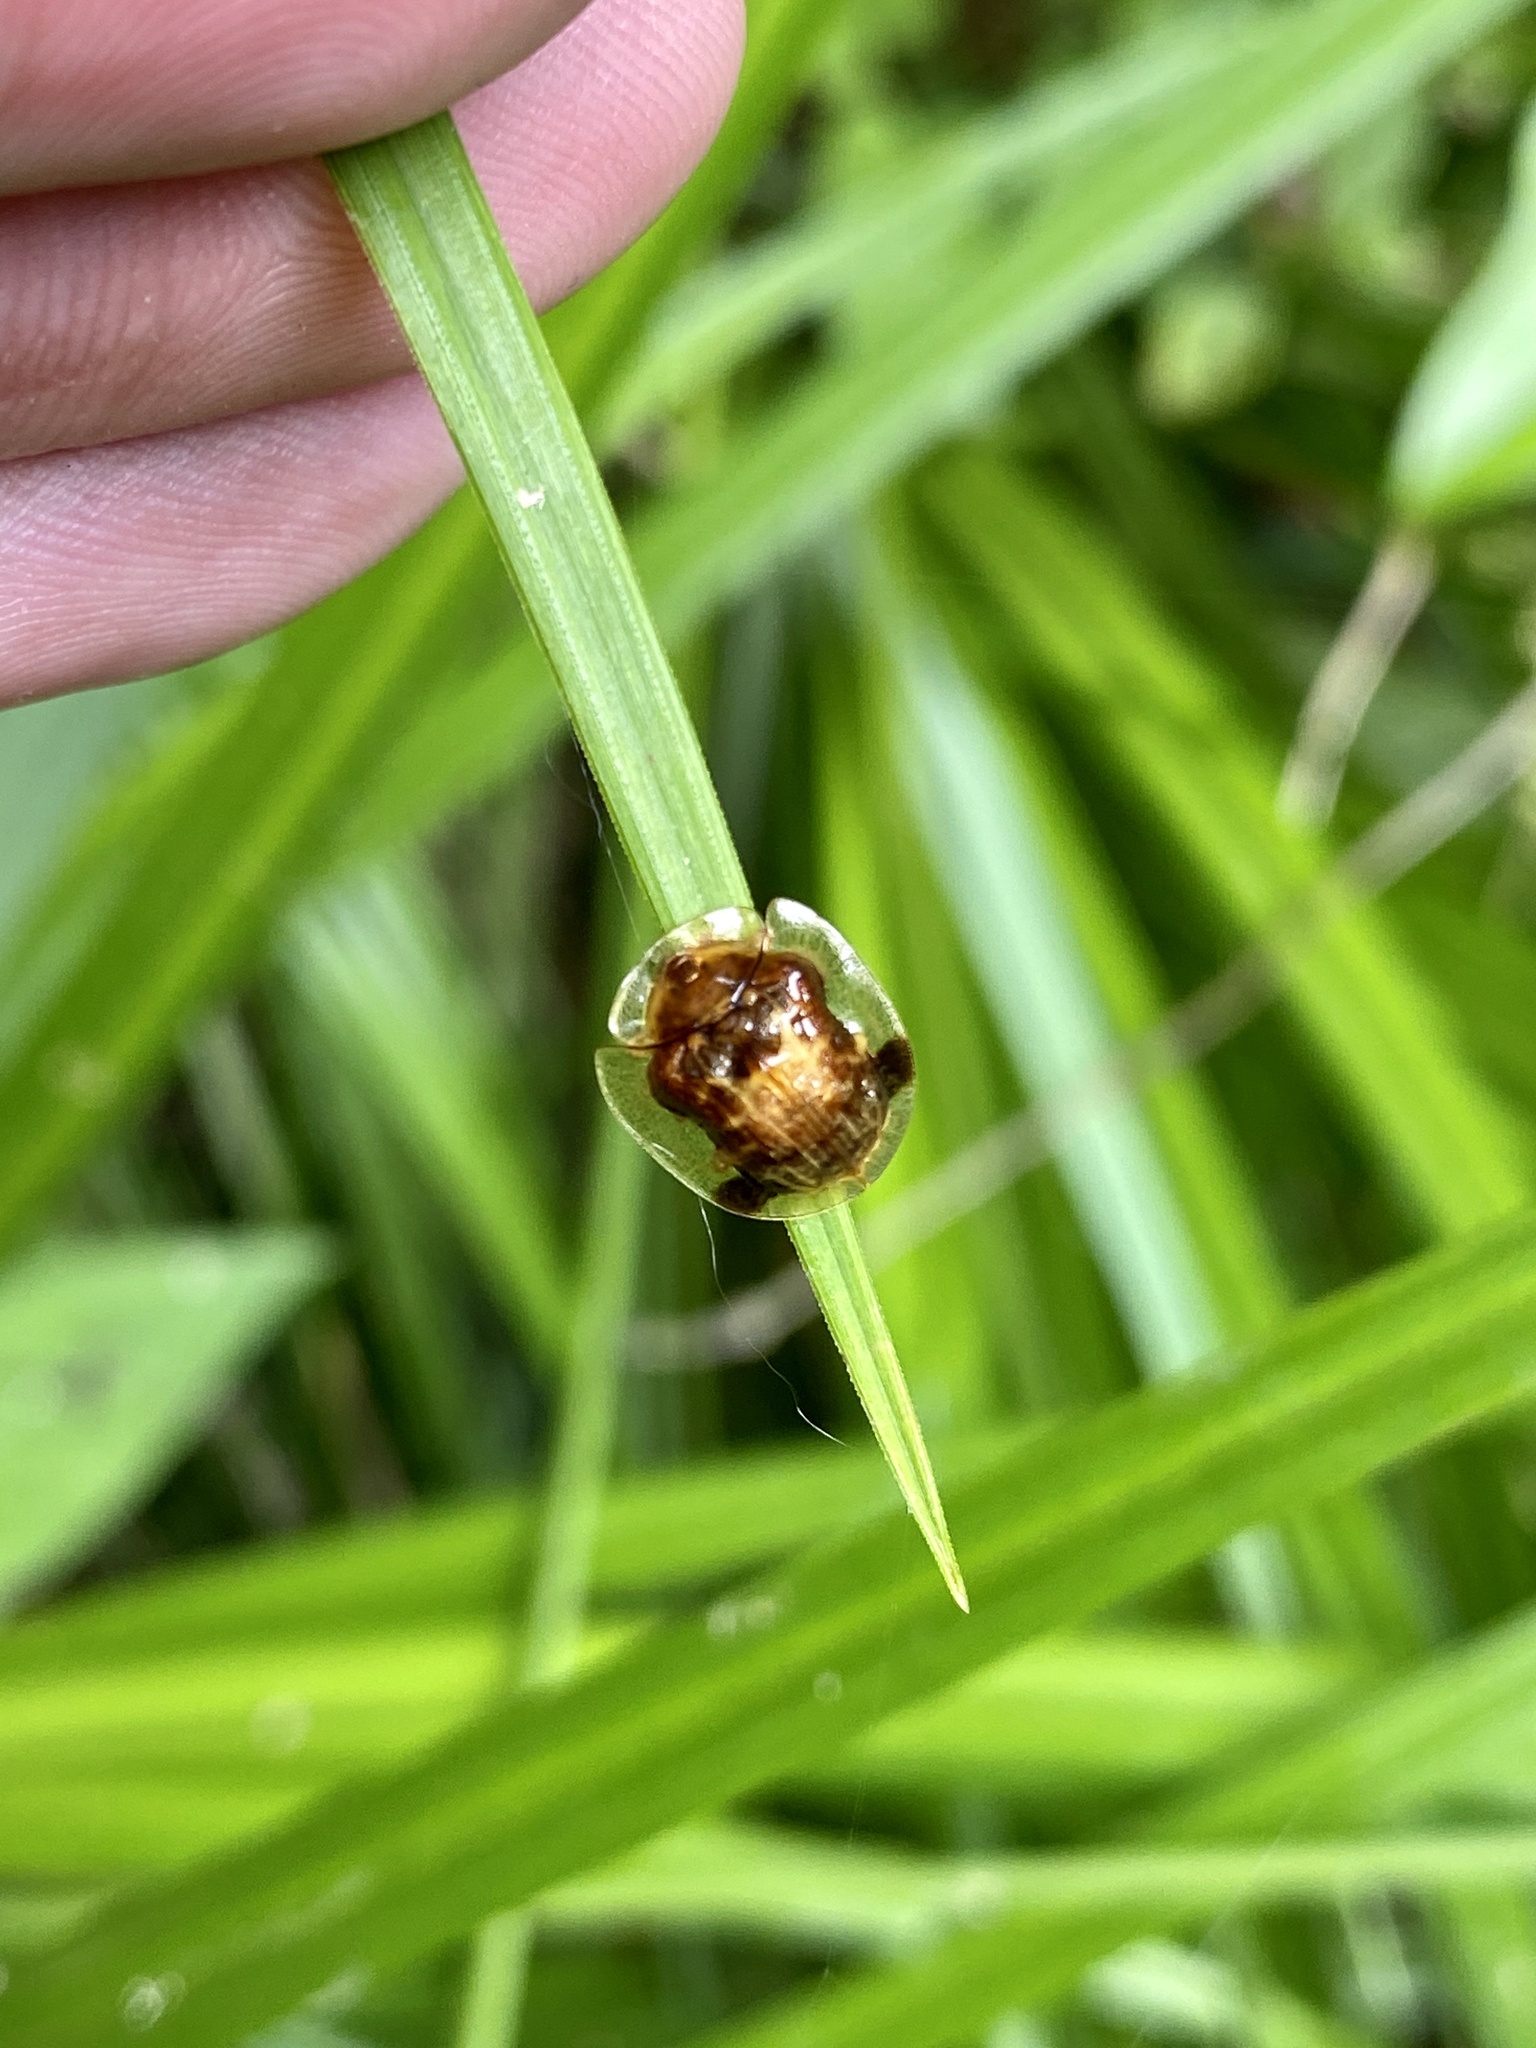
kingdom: Animalia
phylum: Arthropoda
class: Insecta
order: Coleoptera
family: Chrysomelidae
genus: Thlaspida
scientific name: Thlaspida cribrosa
